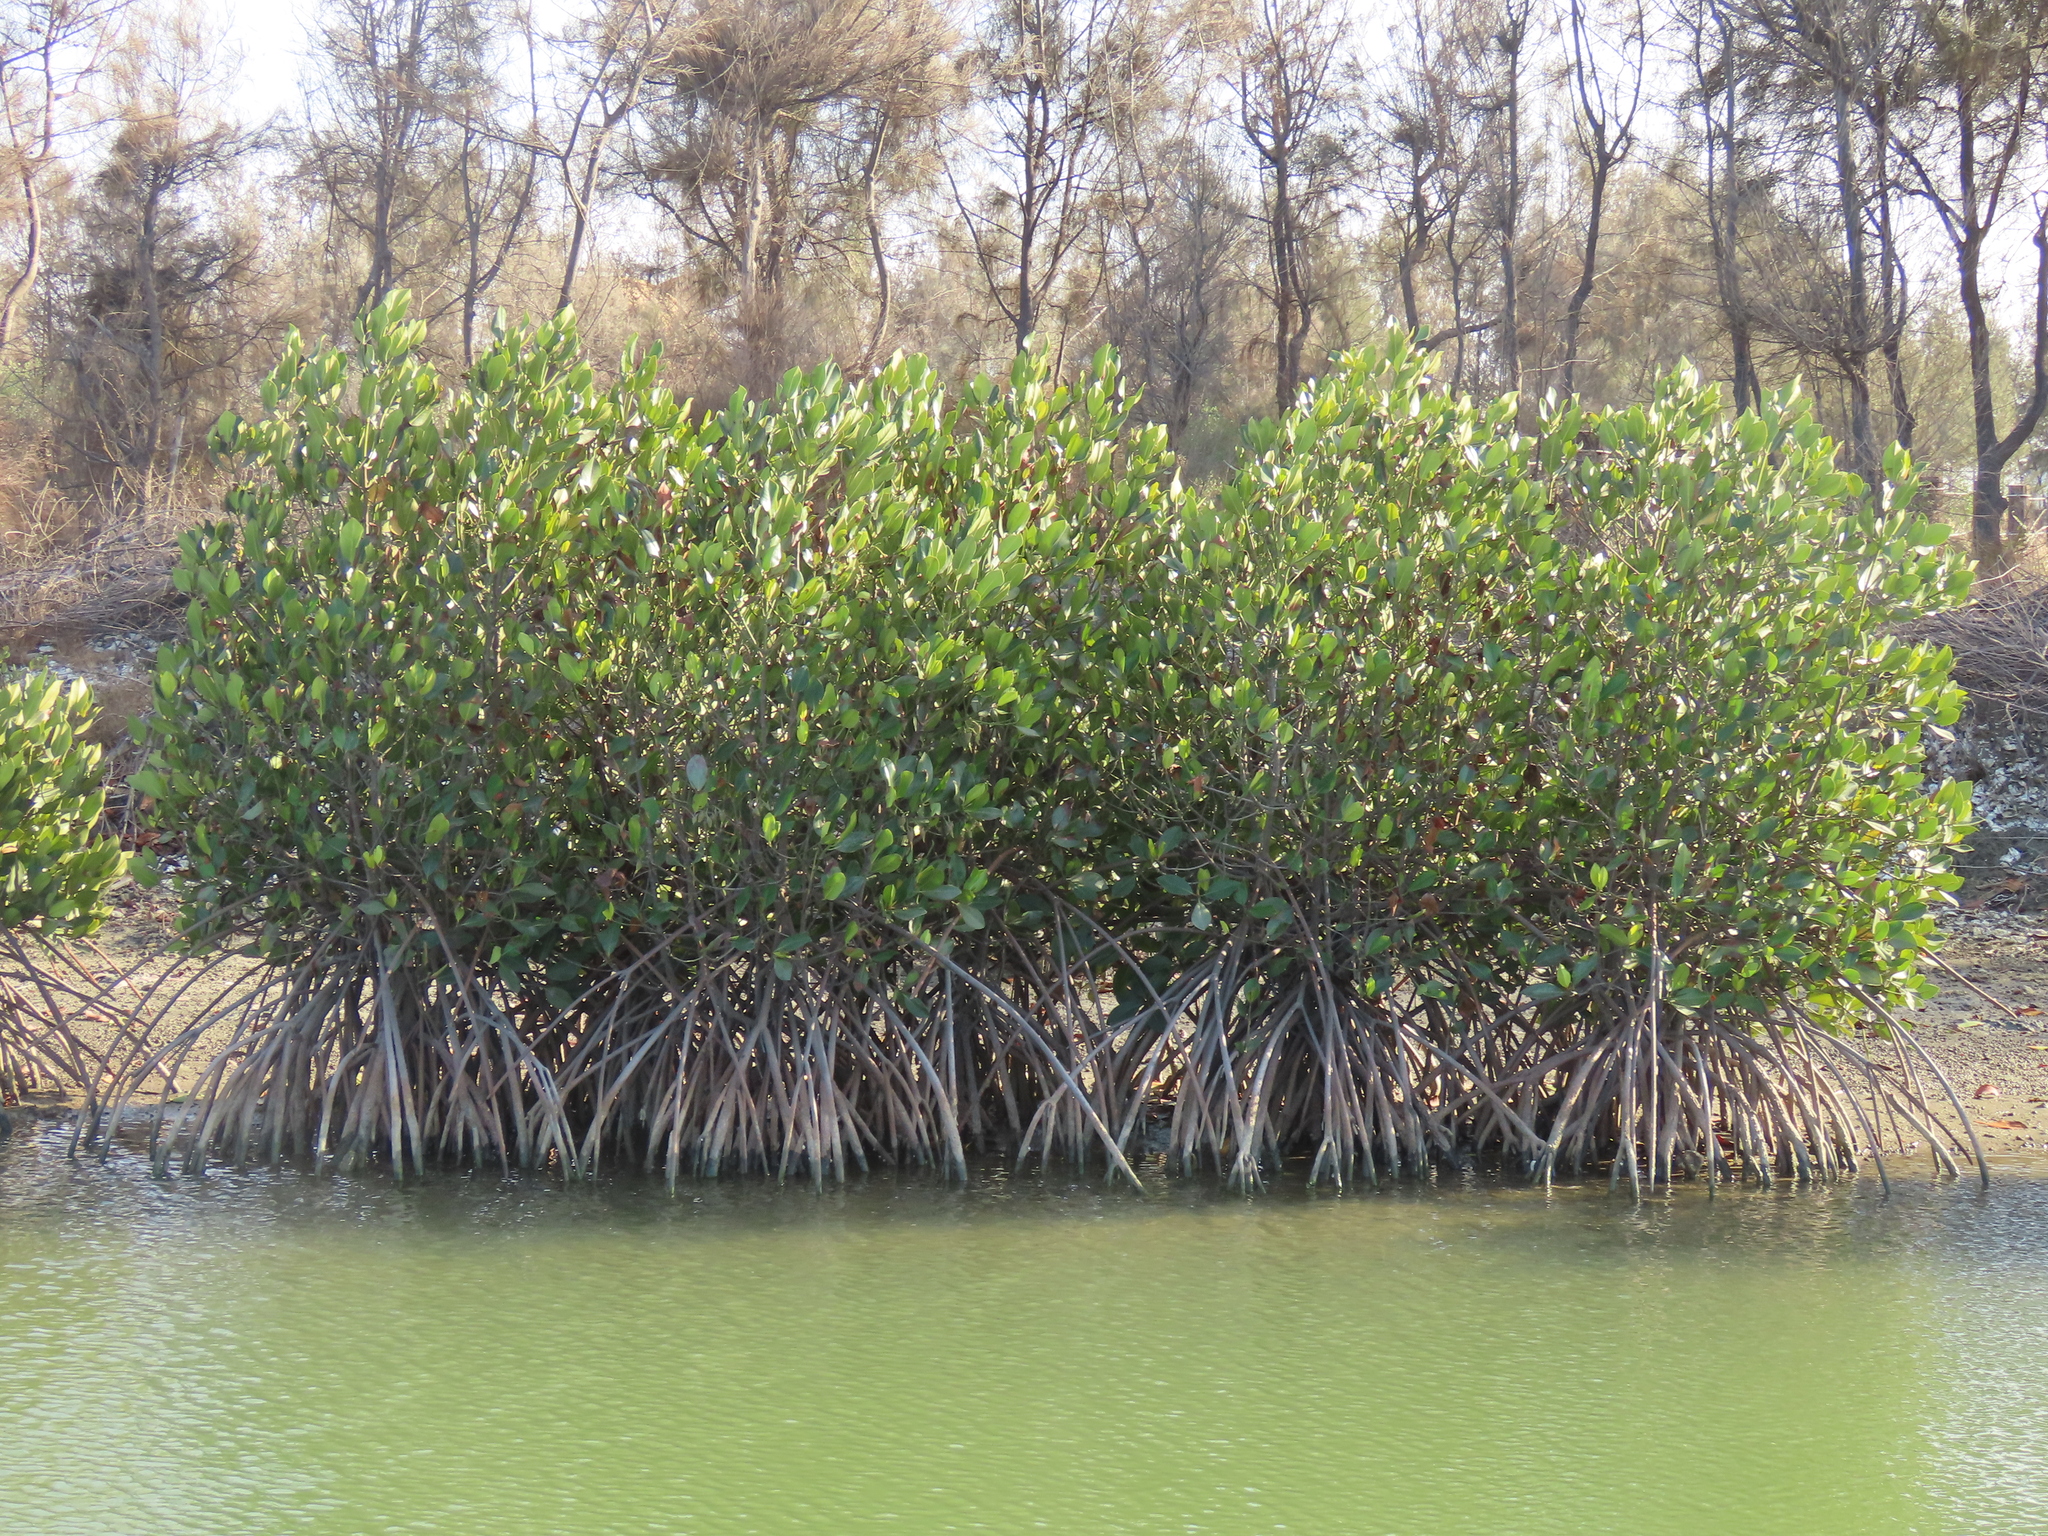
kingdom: Plantae
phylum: Tracheophyta
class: Magnoliopsida
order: Malpighiales
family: Rhizophoraceae
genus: Rhizophora
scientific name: Rhizophora stylosa
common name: Red mangrove
